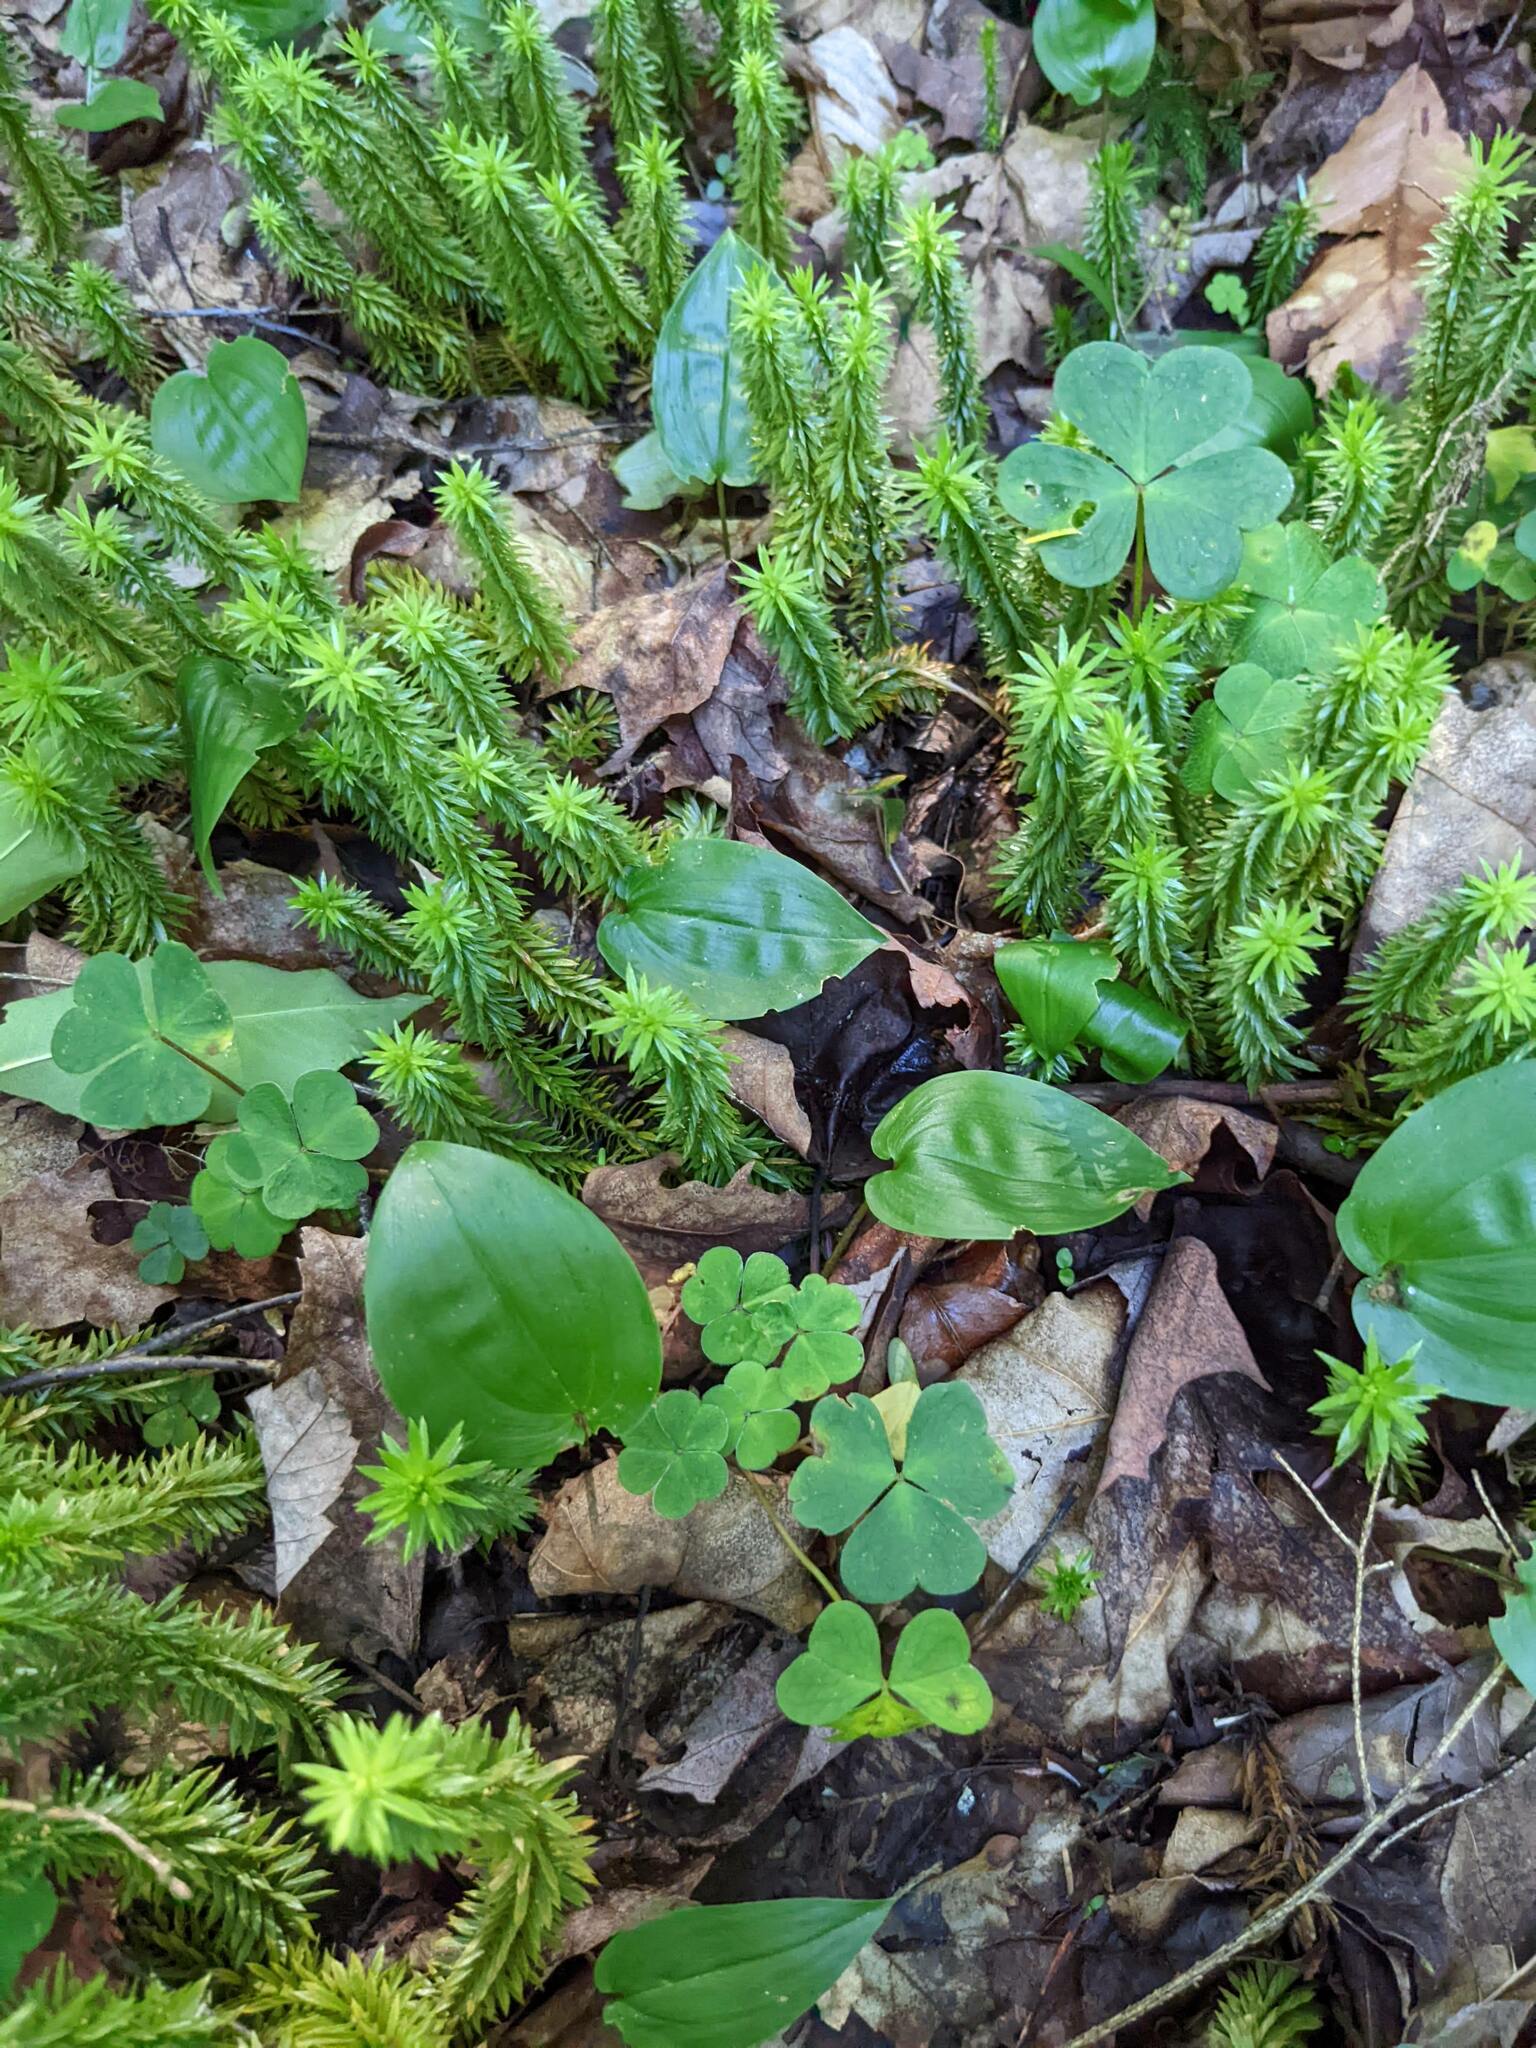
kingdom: Plantae
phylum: Tracheophyta
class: Lycopodiopsida
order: Lycopodiales
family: Lycopodiaceae
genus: Spinulum
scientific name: Spinulum annotinum
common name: Interrupted club-moss
